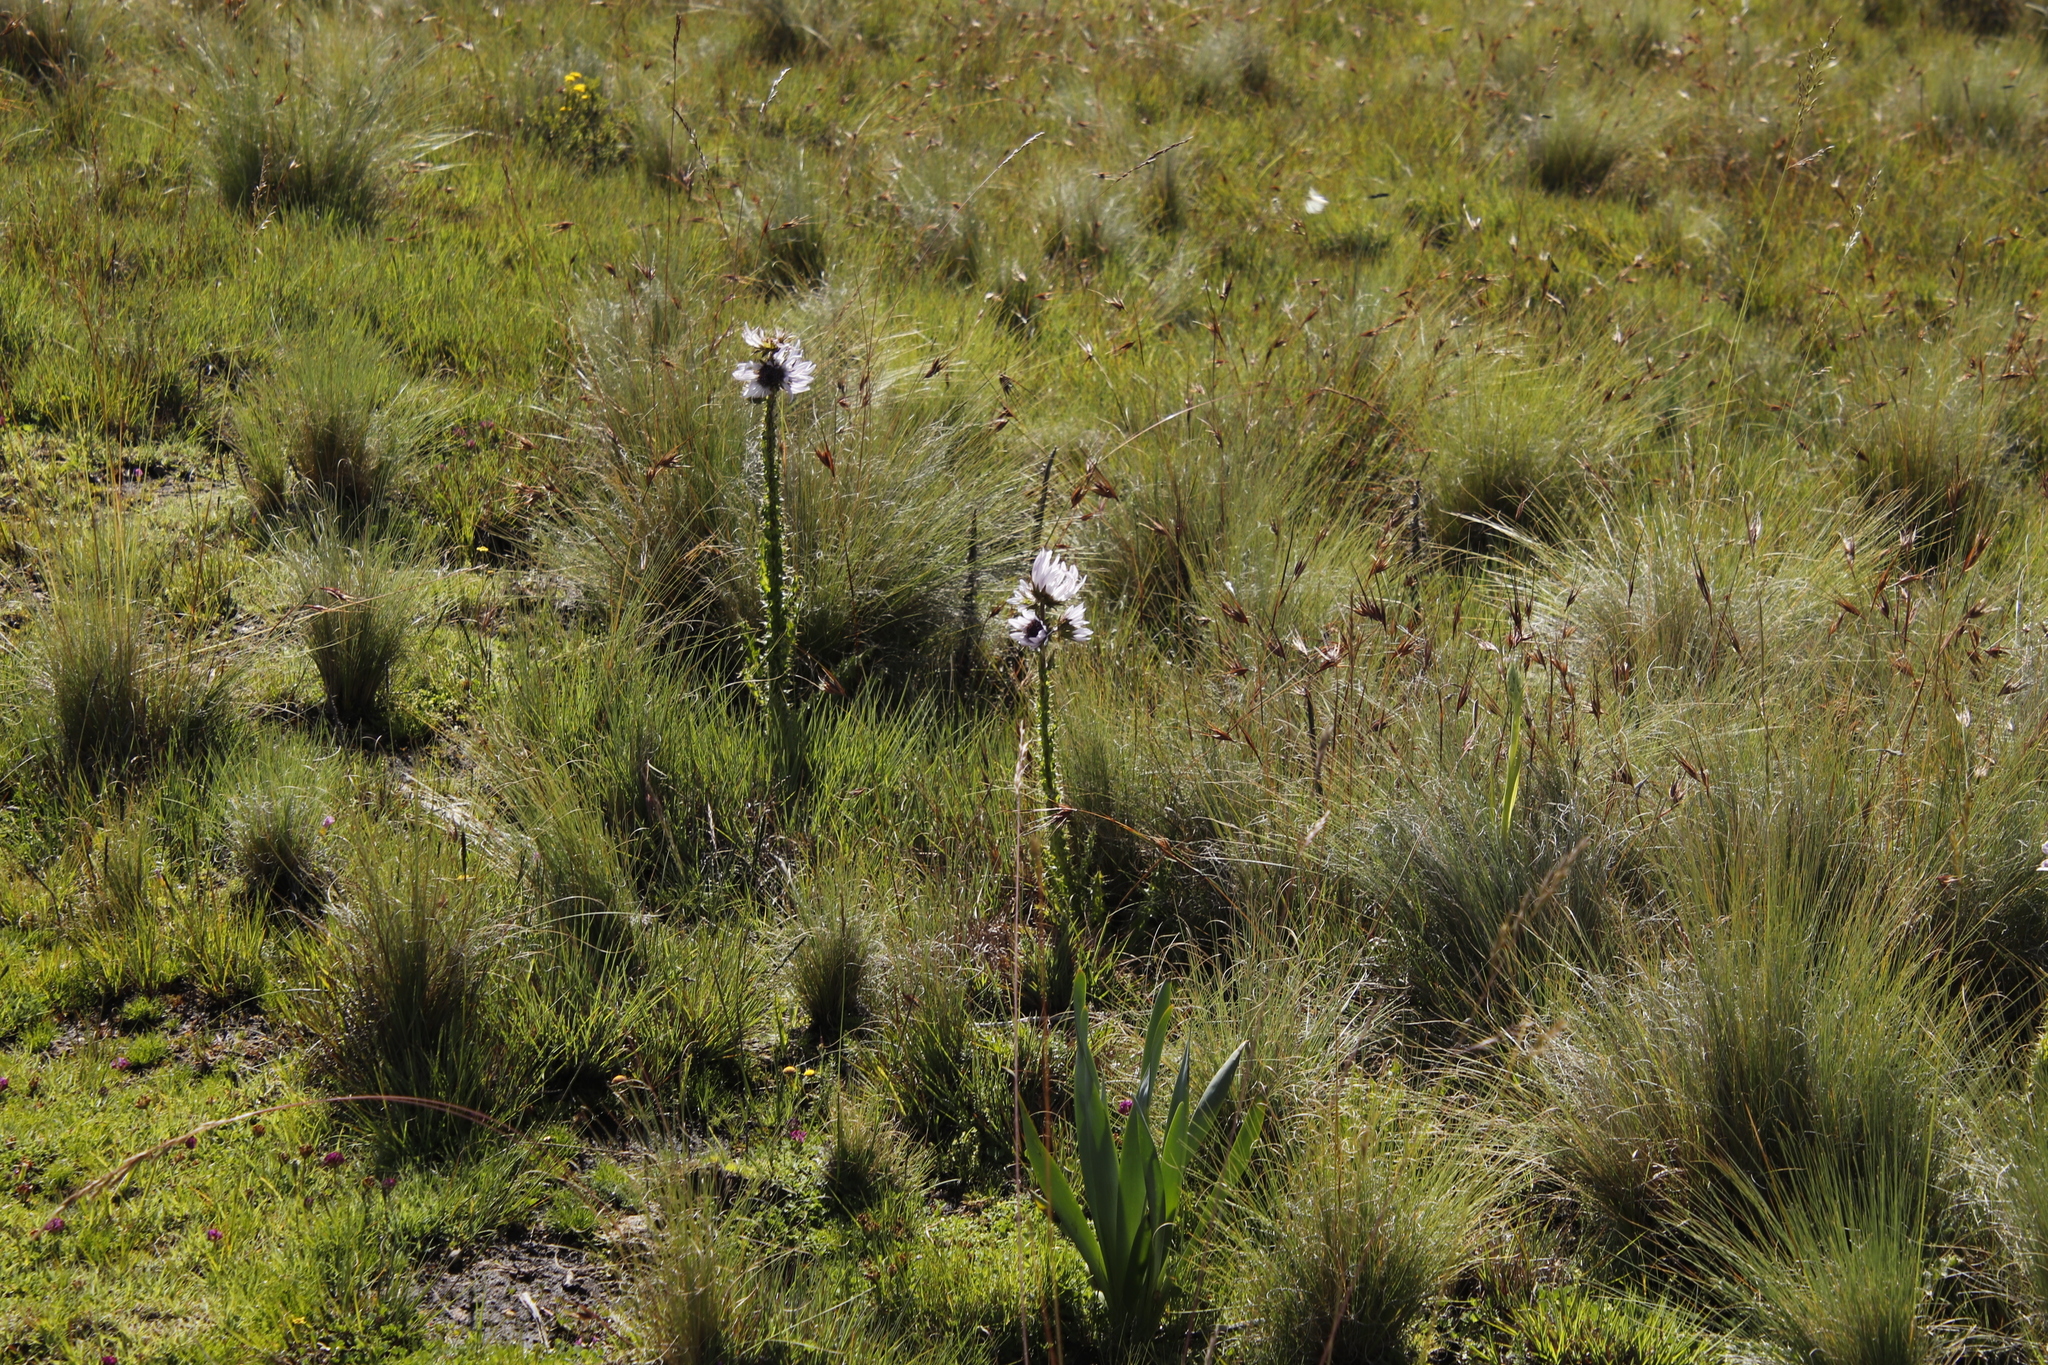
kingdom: Plantae
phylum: Tracheophyta
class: Magnoliopsida
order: Asterales
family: Asteraceae
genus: Berkheya
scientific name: Berkheya purpurea
